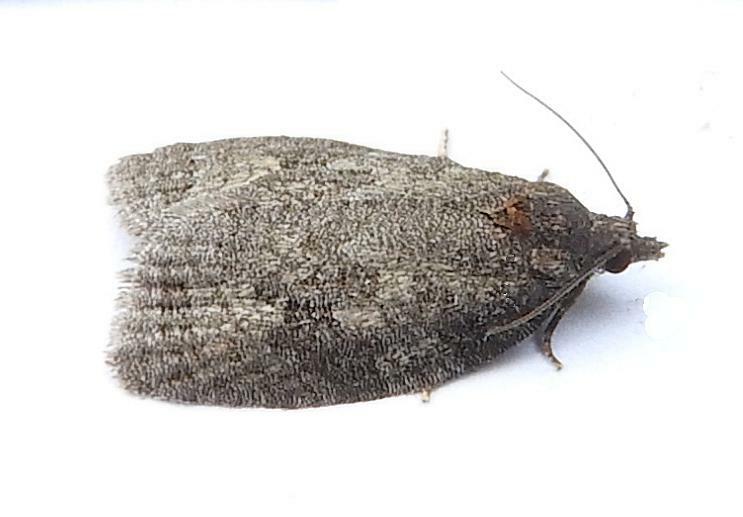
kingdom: Animalia
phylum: Arthropoda
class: Insecta
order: Lepidoptera
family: Tortricidae
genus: Apotomis
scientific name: Apotomis deceptana
